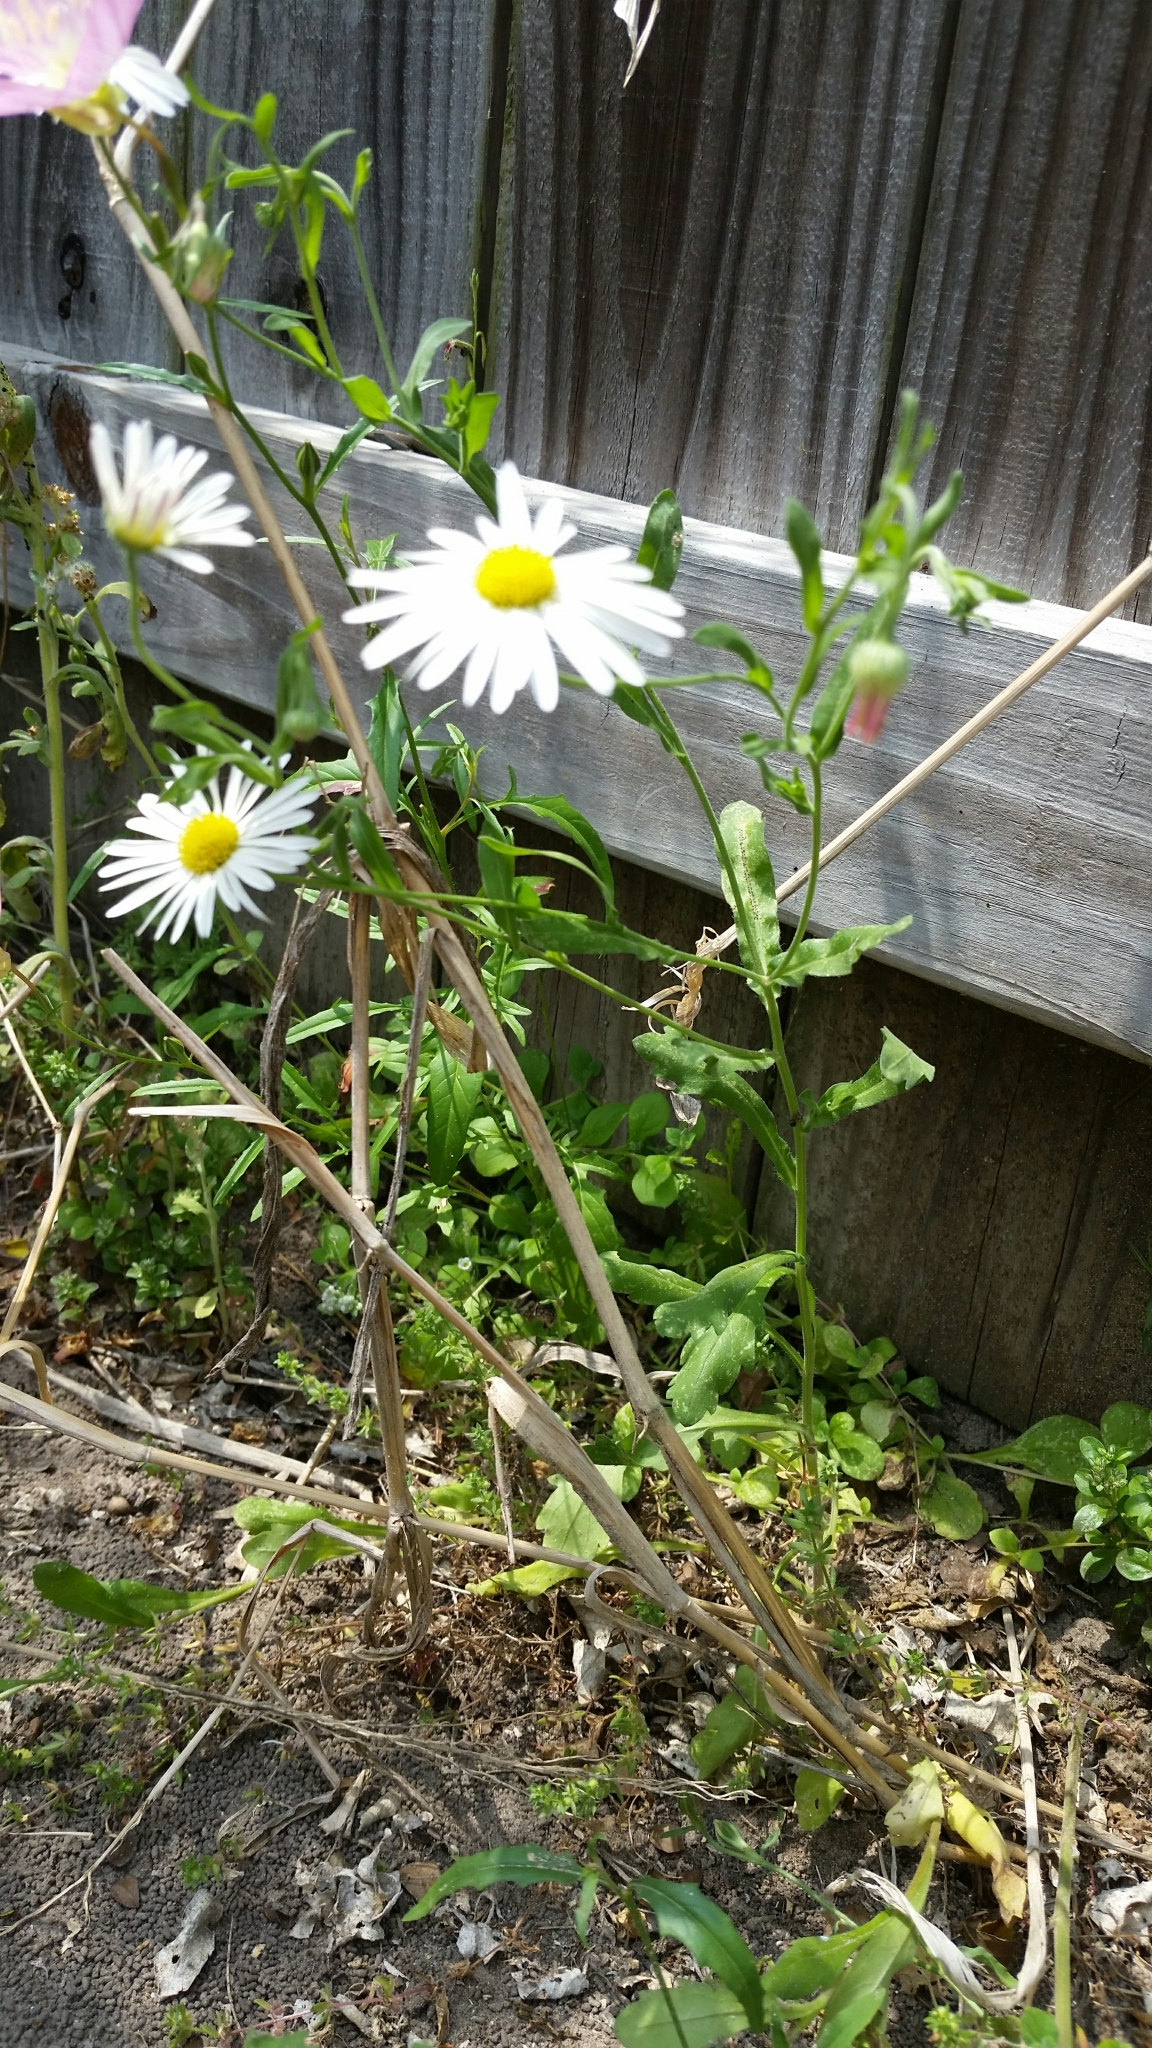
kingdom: Plantae
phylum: Tracheophyta
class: Magnoliopsida
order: Asterales
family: Asteraceae
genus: Aphanostephus
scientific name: Aphanostephus ramosissimus
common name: Plains lazy daisy
